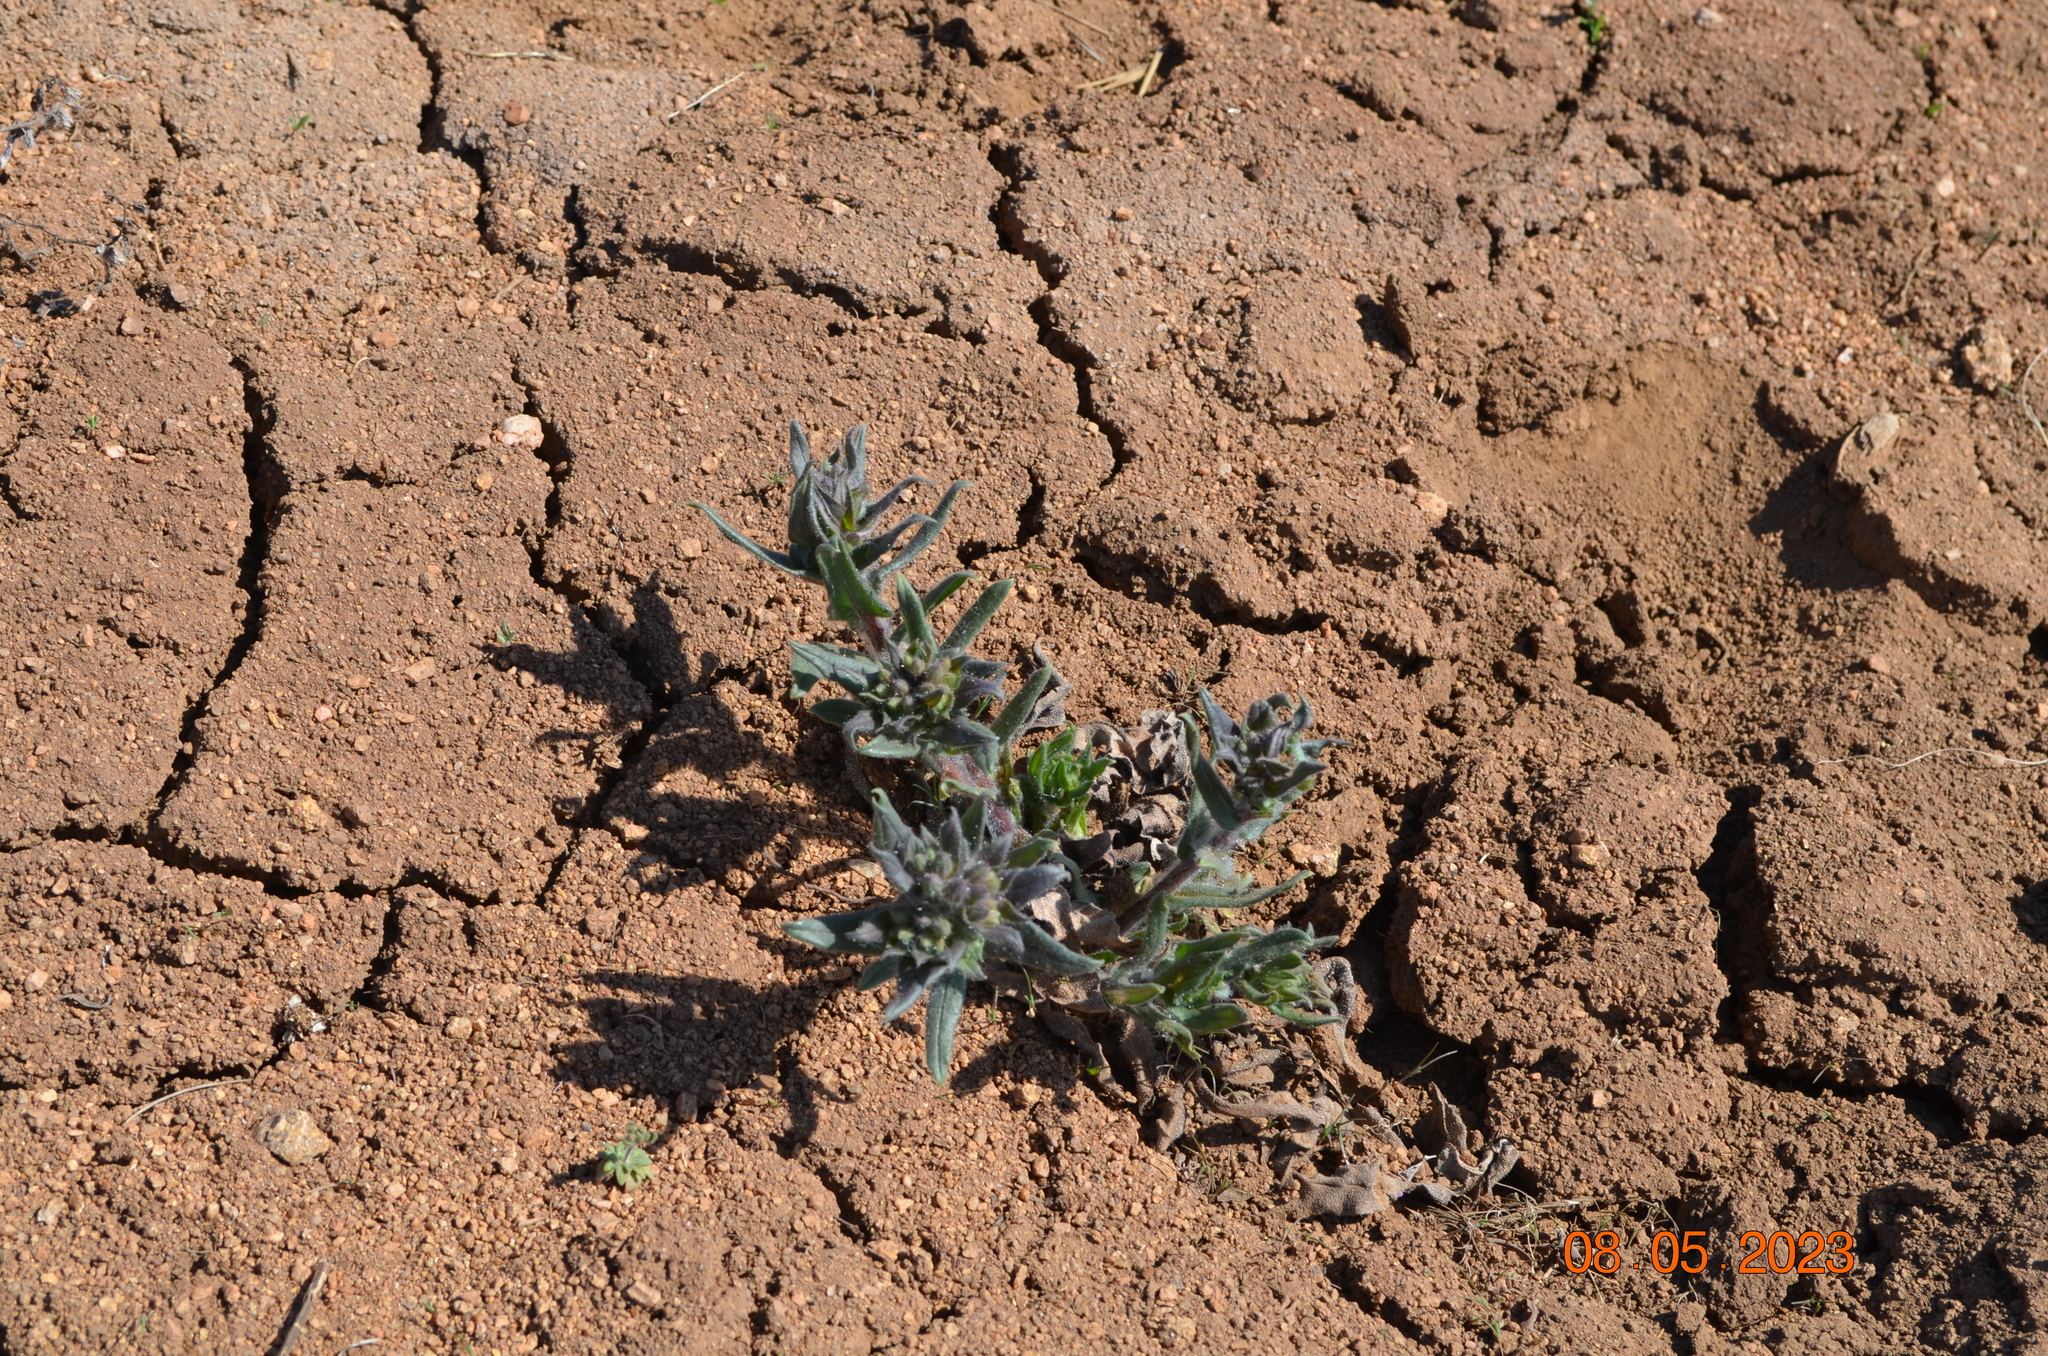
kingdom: Plantae
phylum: Tracheophyta
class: Magnoliopsida
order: Boraginales
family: Boraginaceae
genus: Nonea
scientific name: Nonea pulla
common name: Brown nonea
